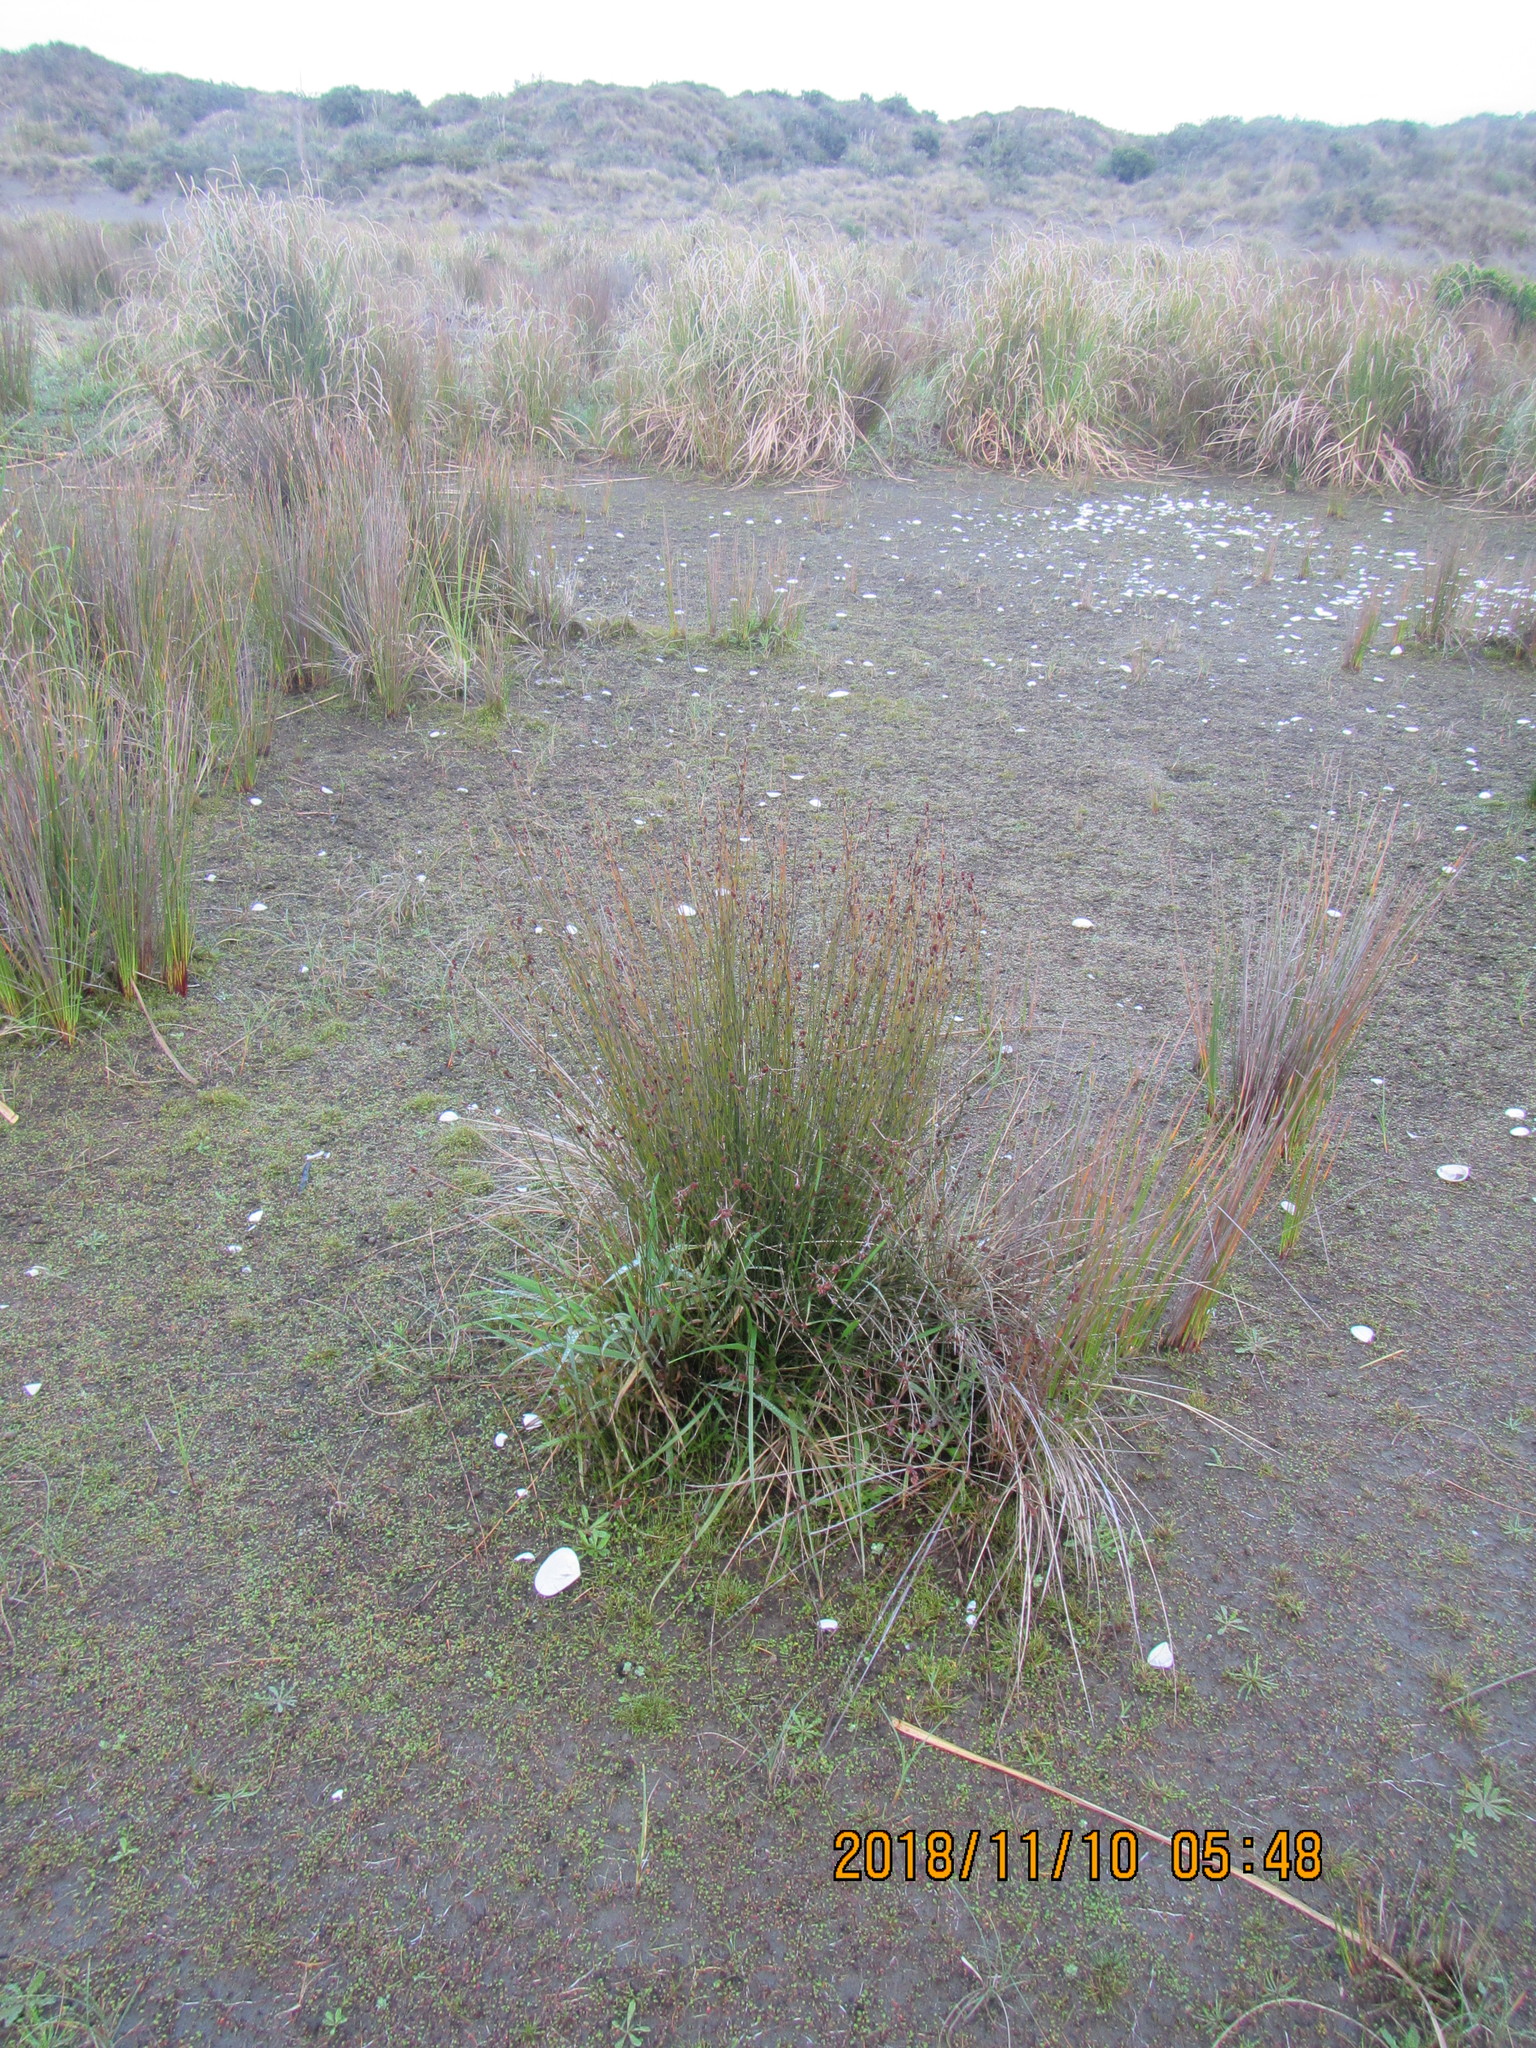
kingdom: Plantae
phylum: Tracheophyta
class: Liliopsida
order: Poales
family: Restionaceae
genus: Apodasmia
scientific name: Apodasmia similis
